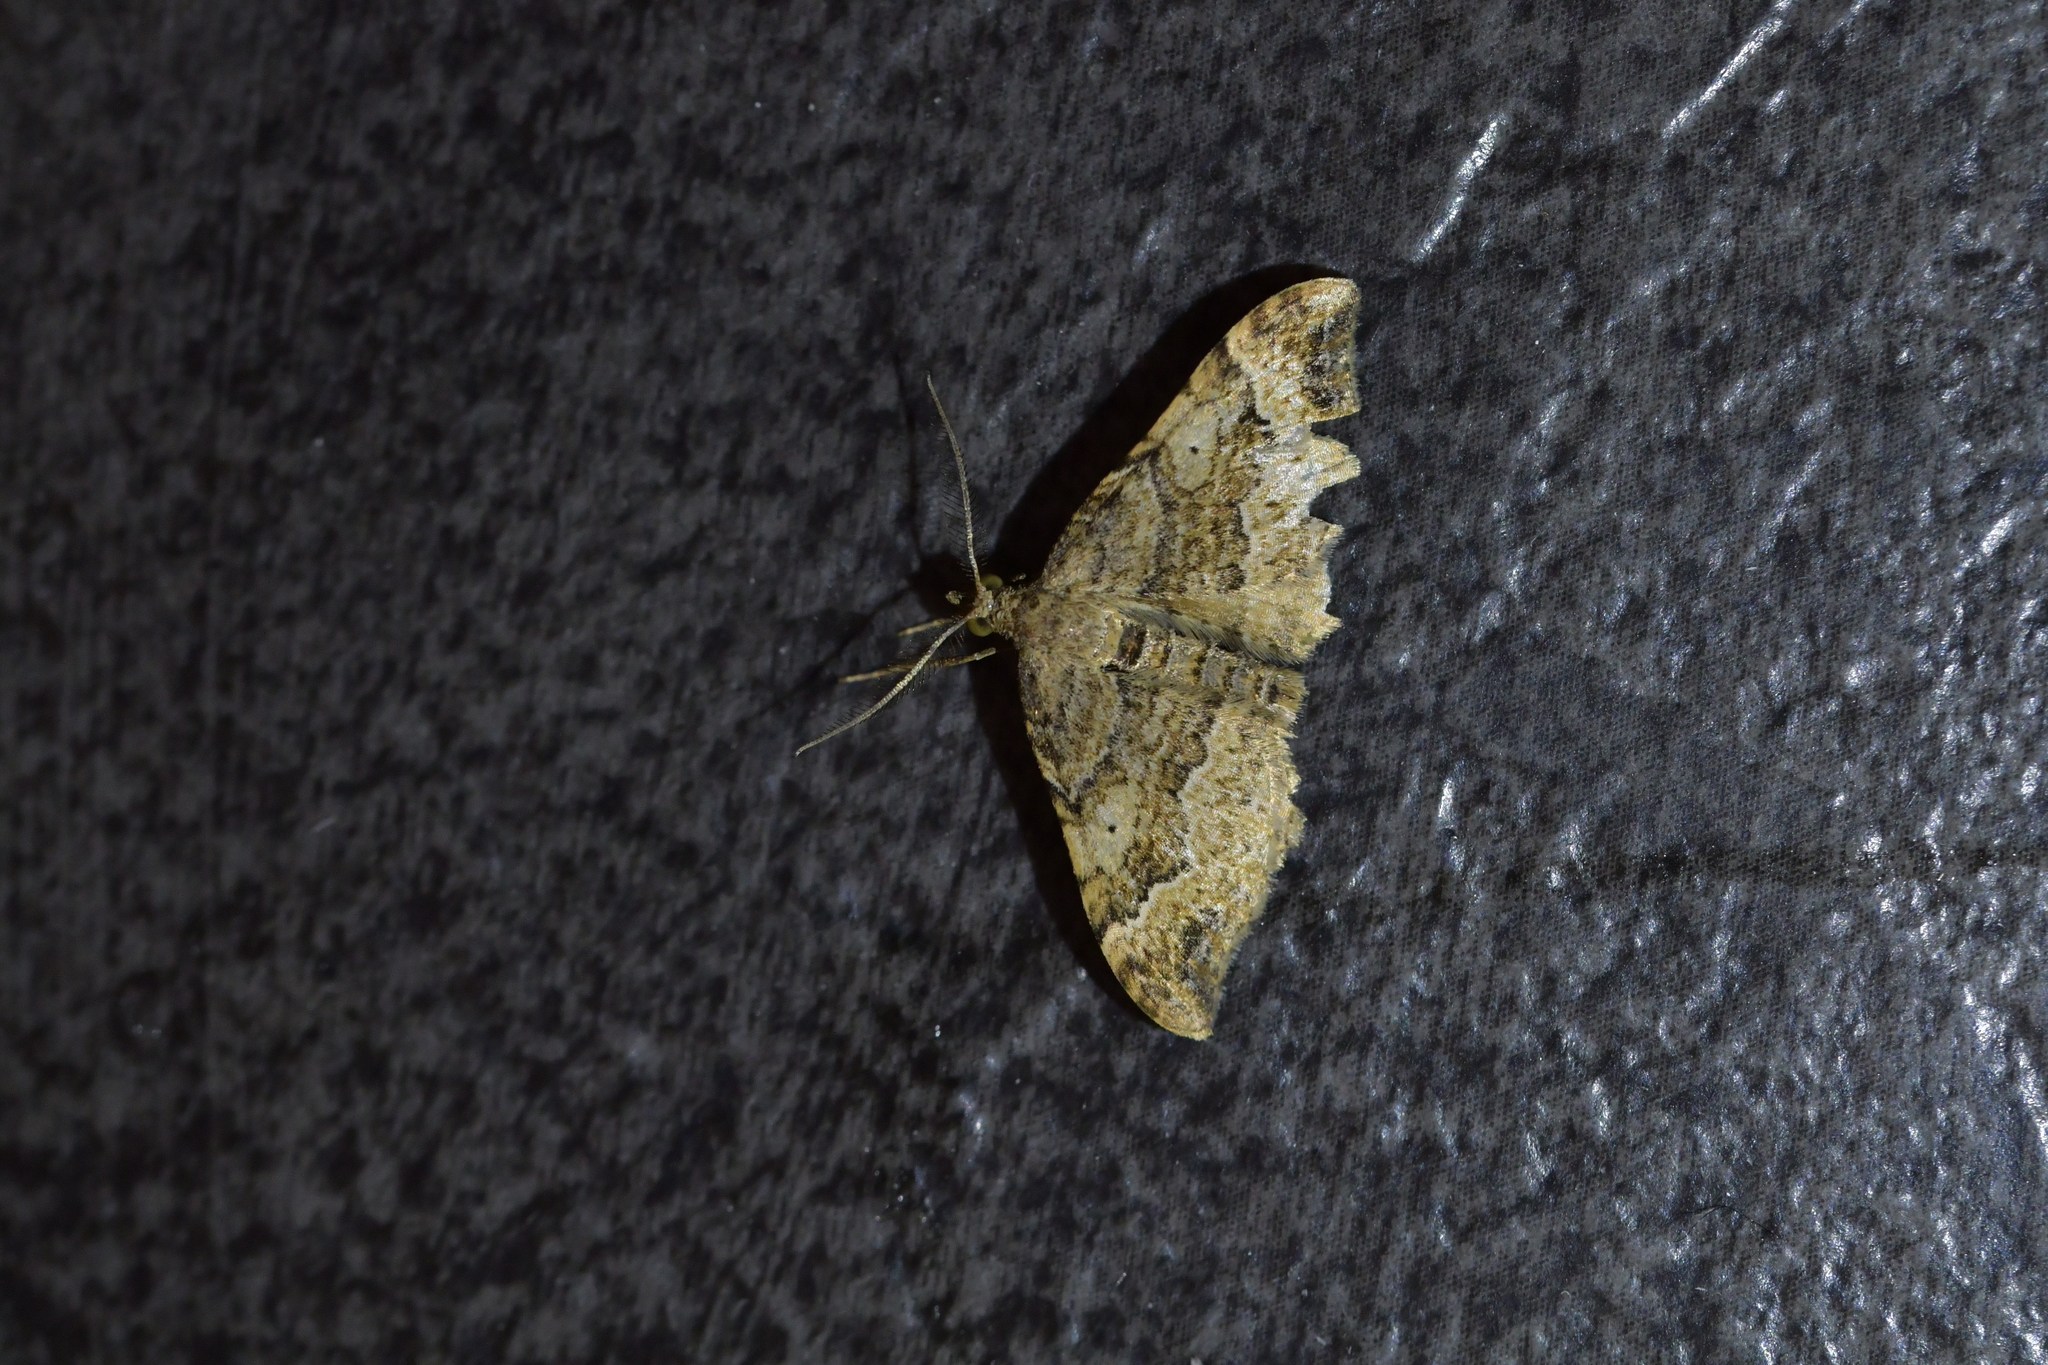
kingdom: Animalia
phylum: Arthropoda
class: Insecta
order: Lepidoptera
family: Geometridae
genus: Homodotis
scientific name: Homodotis megaspilata
